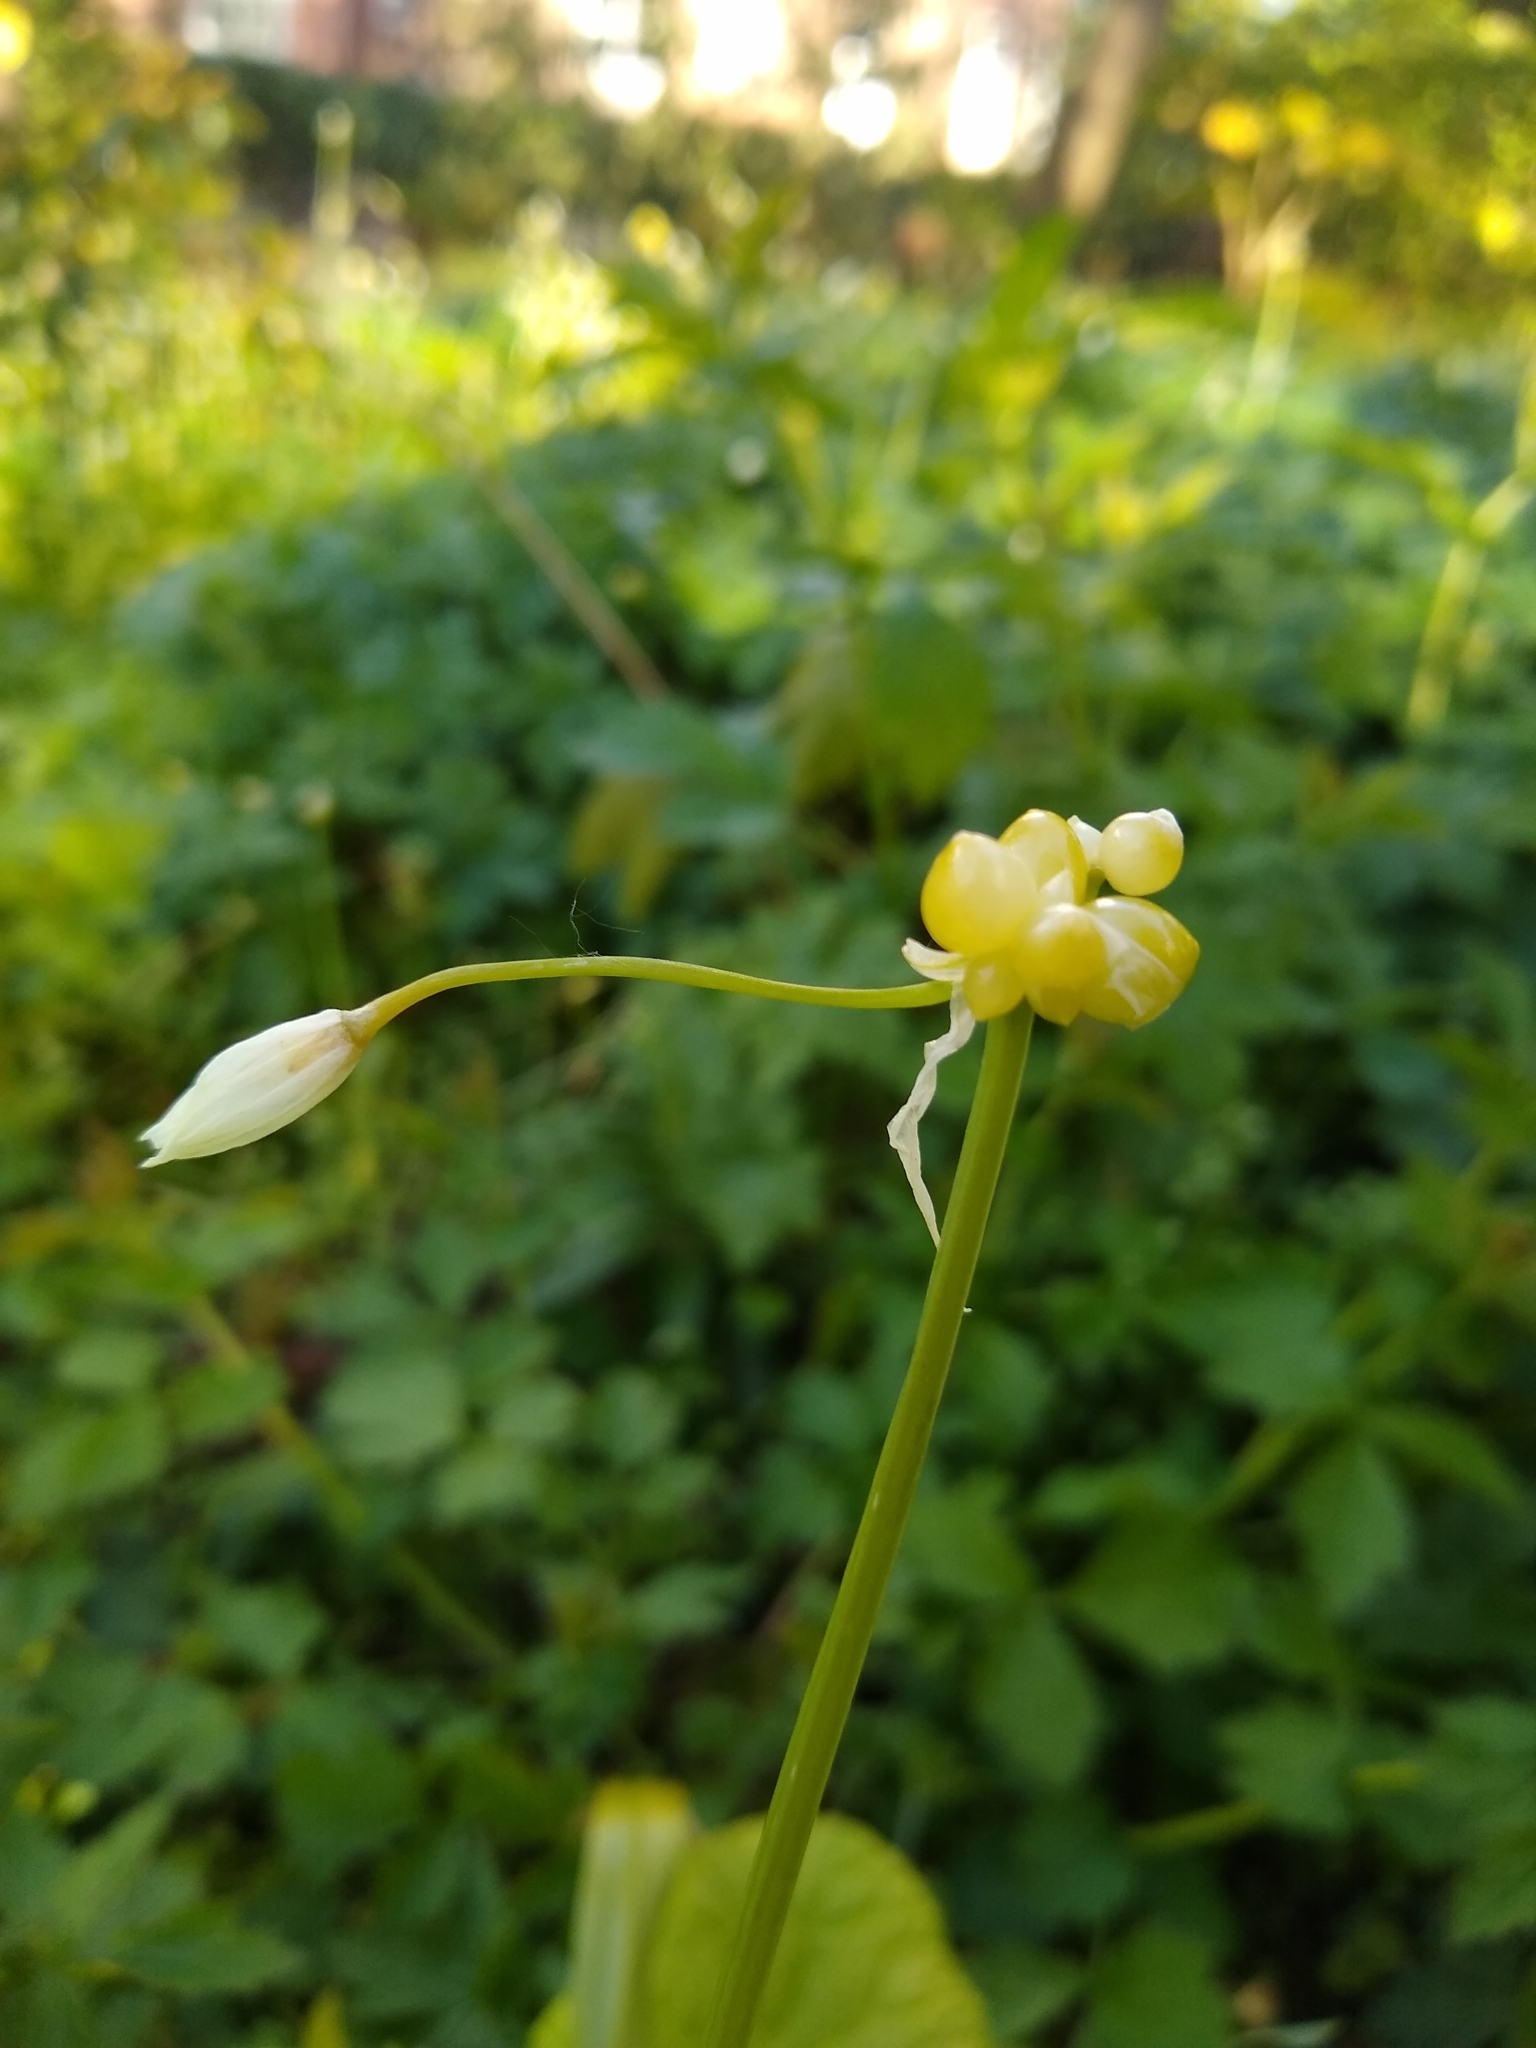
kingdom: Plantae
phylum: Tracheophyta
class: Liliopsida
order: Asparagales
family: Amaryllidaceae
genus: Allium
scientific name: Allium paradoxum
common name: Few-flowered garlic
